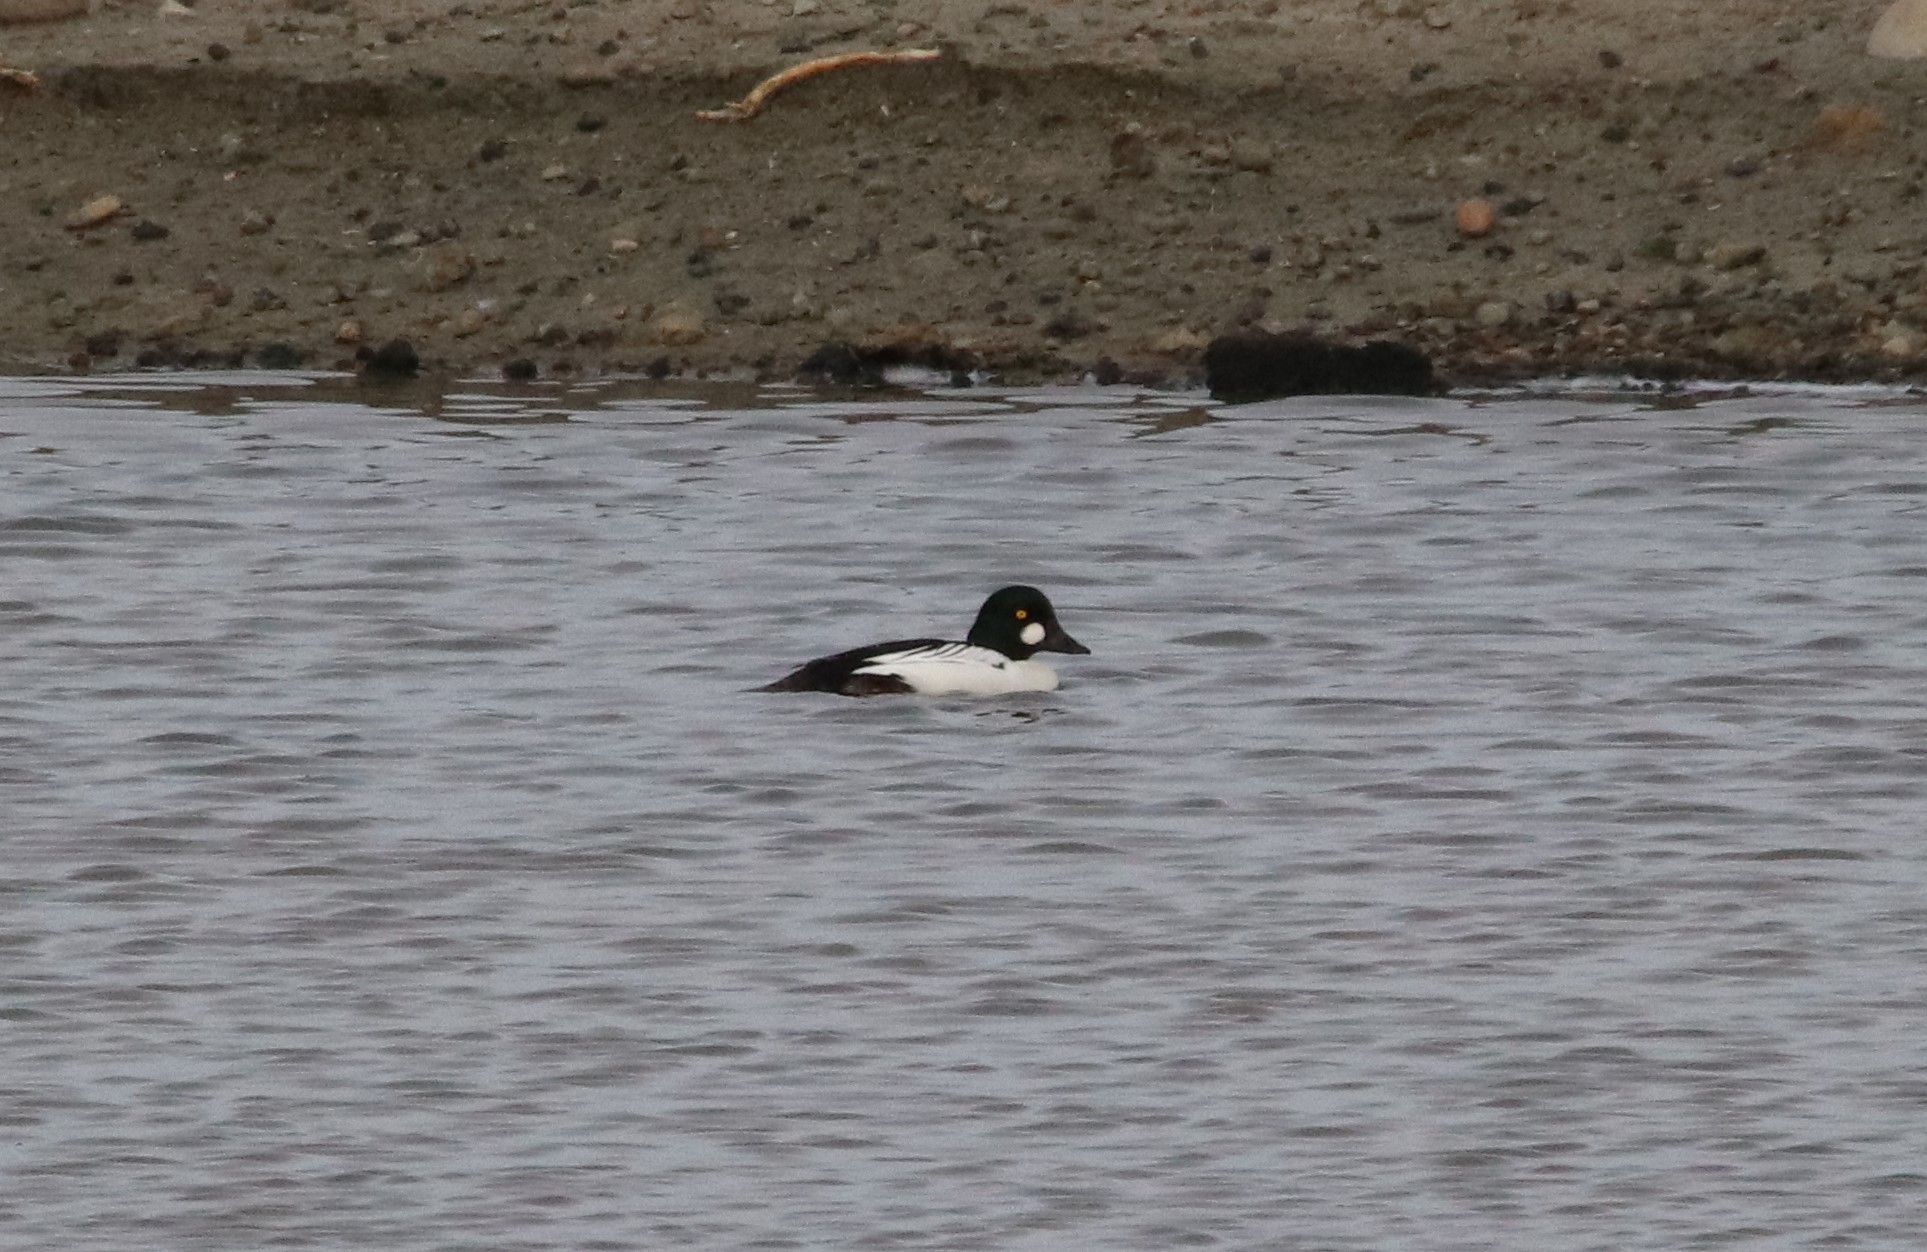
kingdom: Animalia
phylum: Chordata
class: Aves
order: Anseriformes
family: Anatidae
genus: Bucephala
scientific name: Bucephala clangula
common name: Common goldeneye
